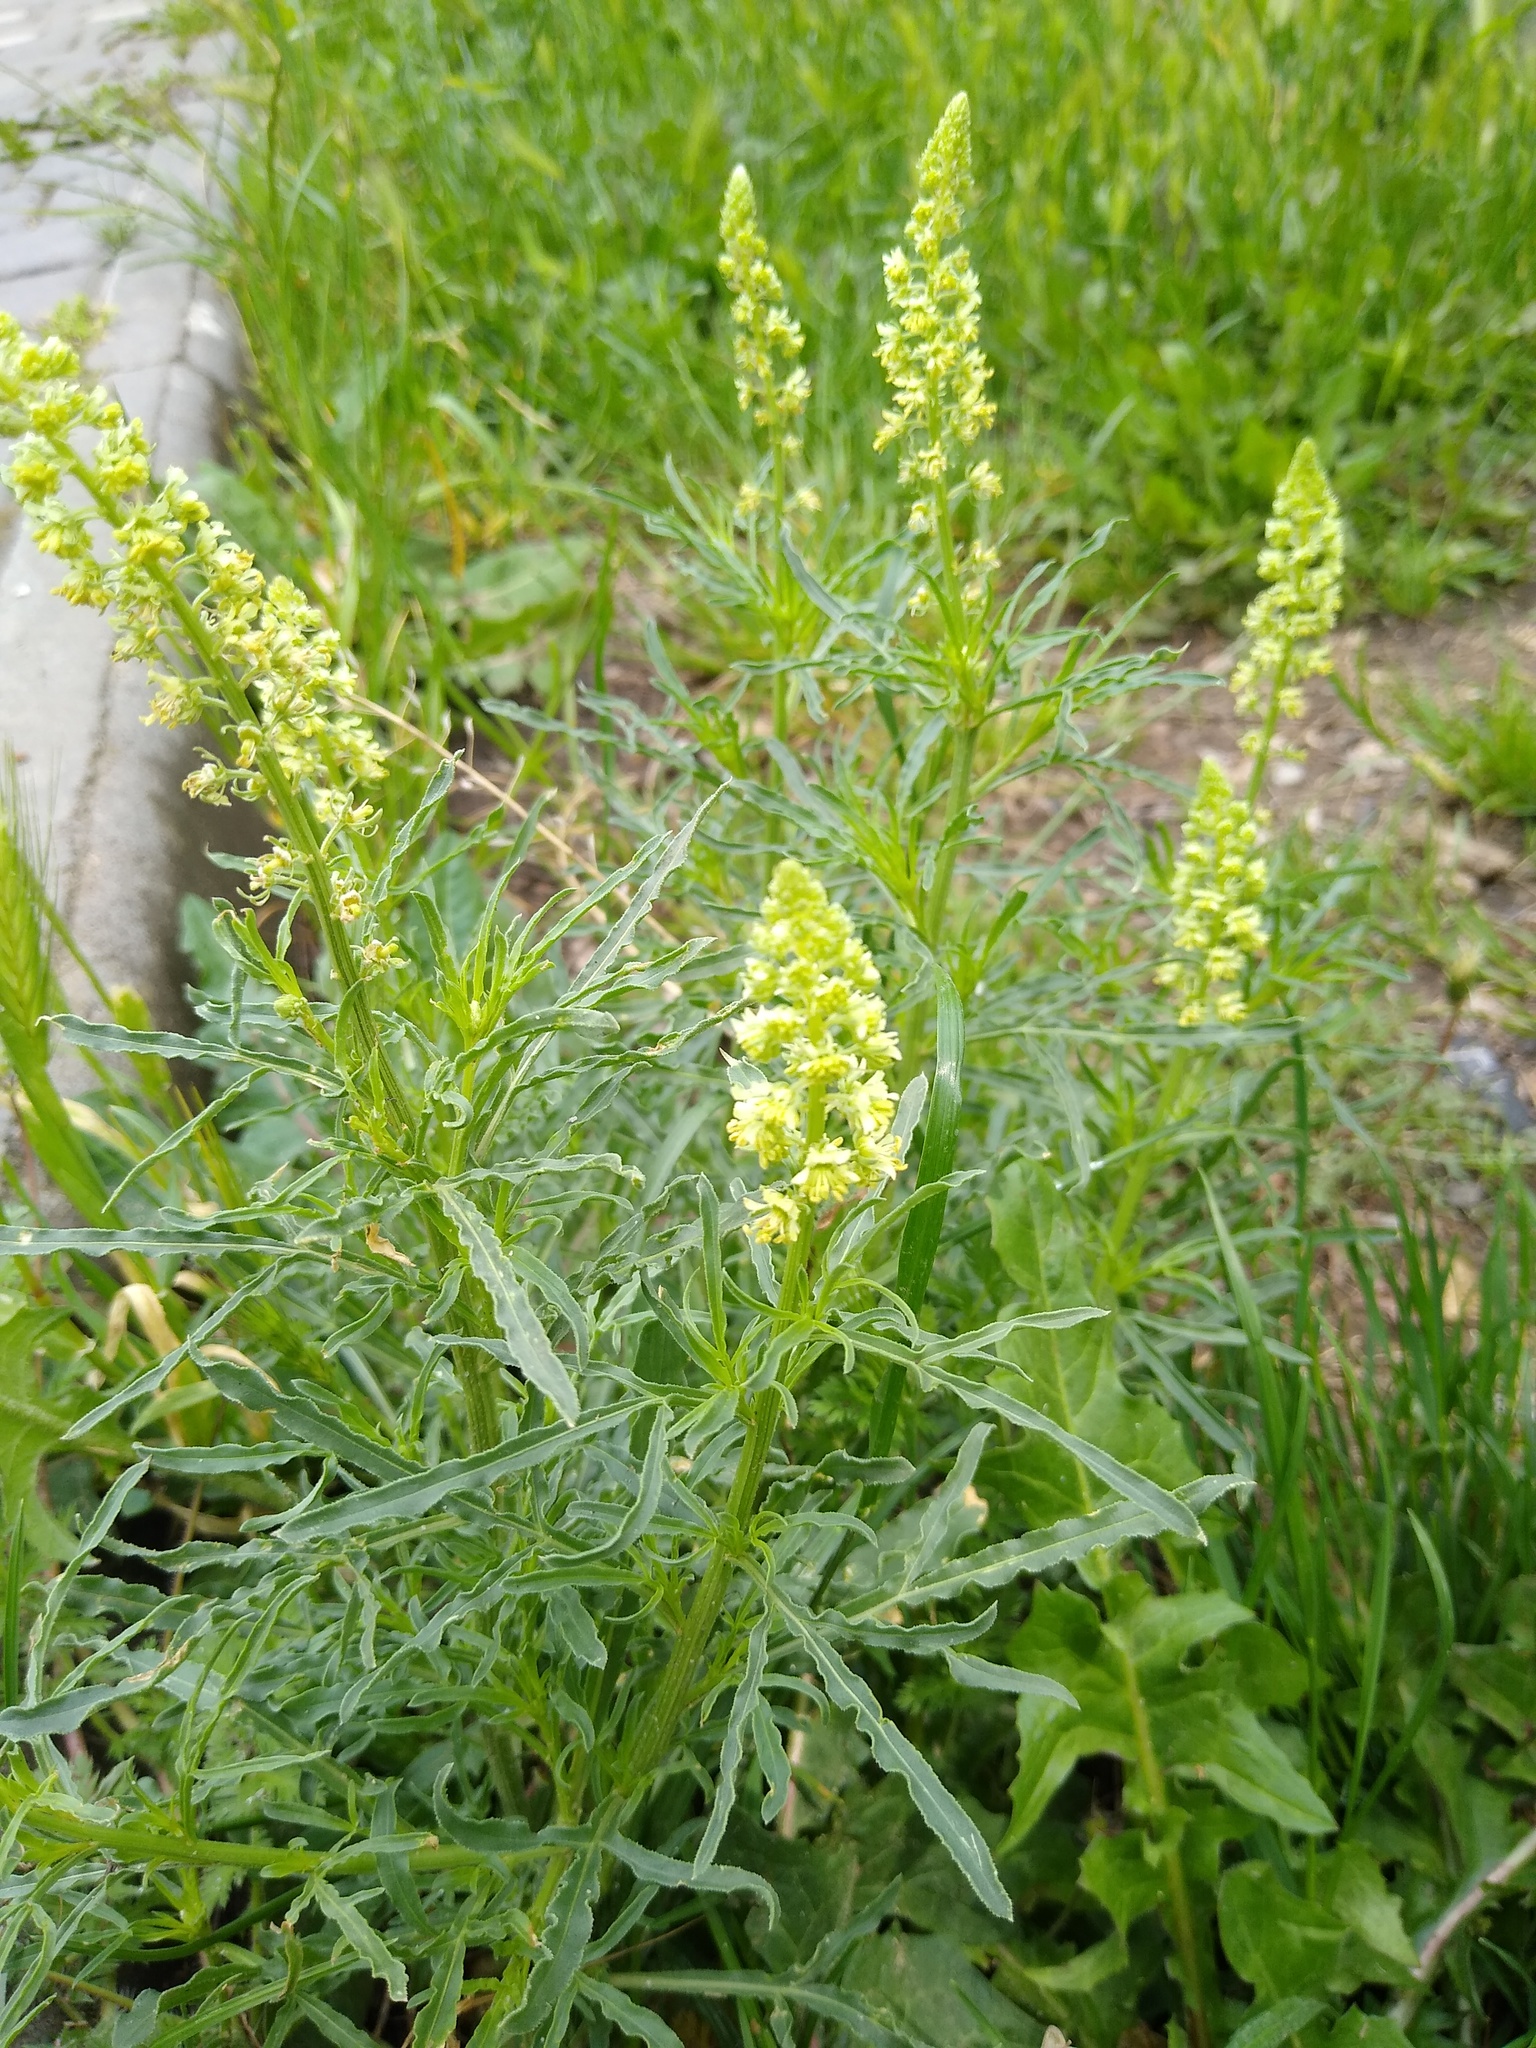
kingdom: Plantae
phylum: Tracheophyta
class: Magnoliopsida
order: Brassicales
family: Resedaceae
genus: Reseda
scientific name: Reseda lutea
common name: Wild mignonette
